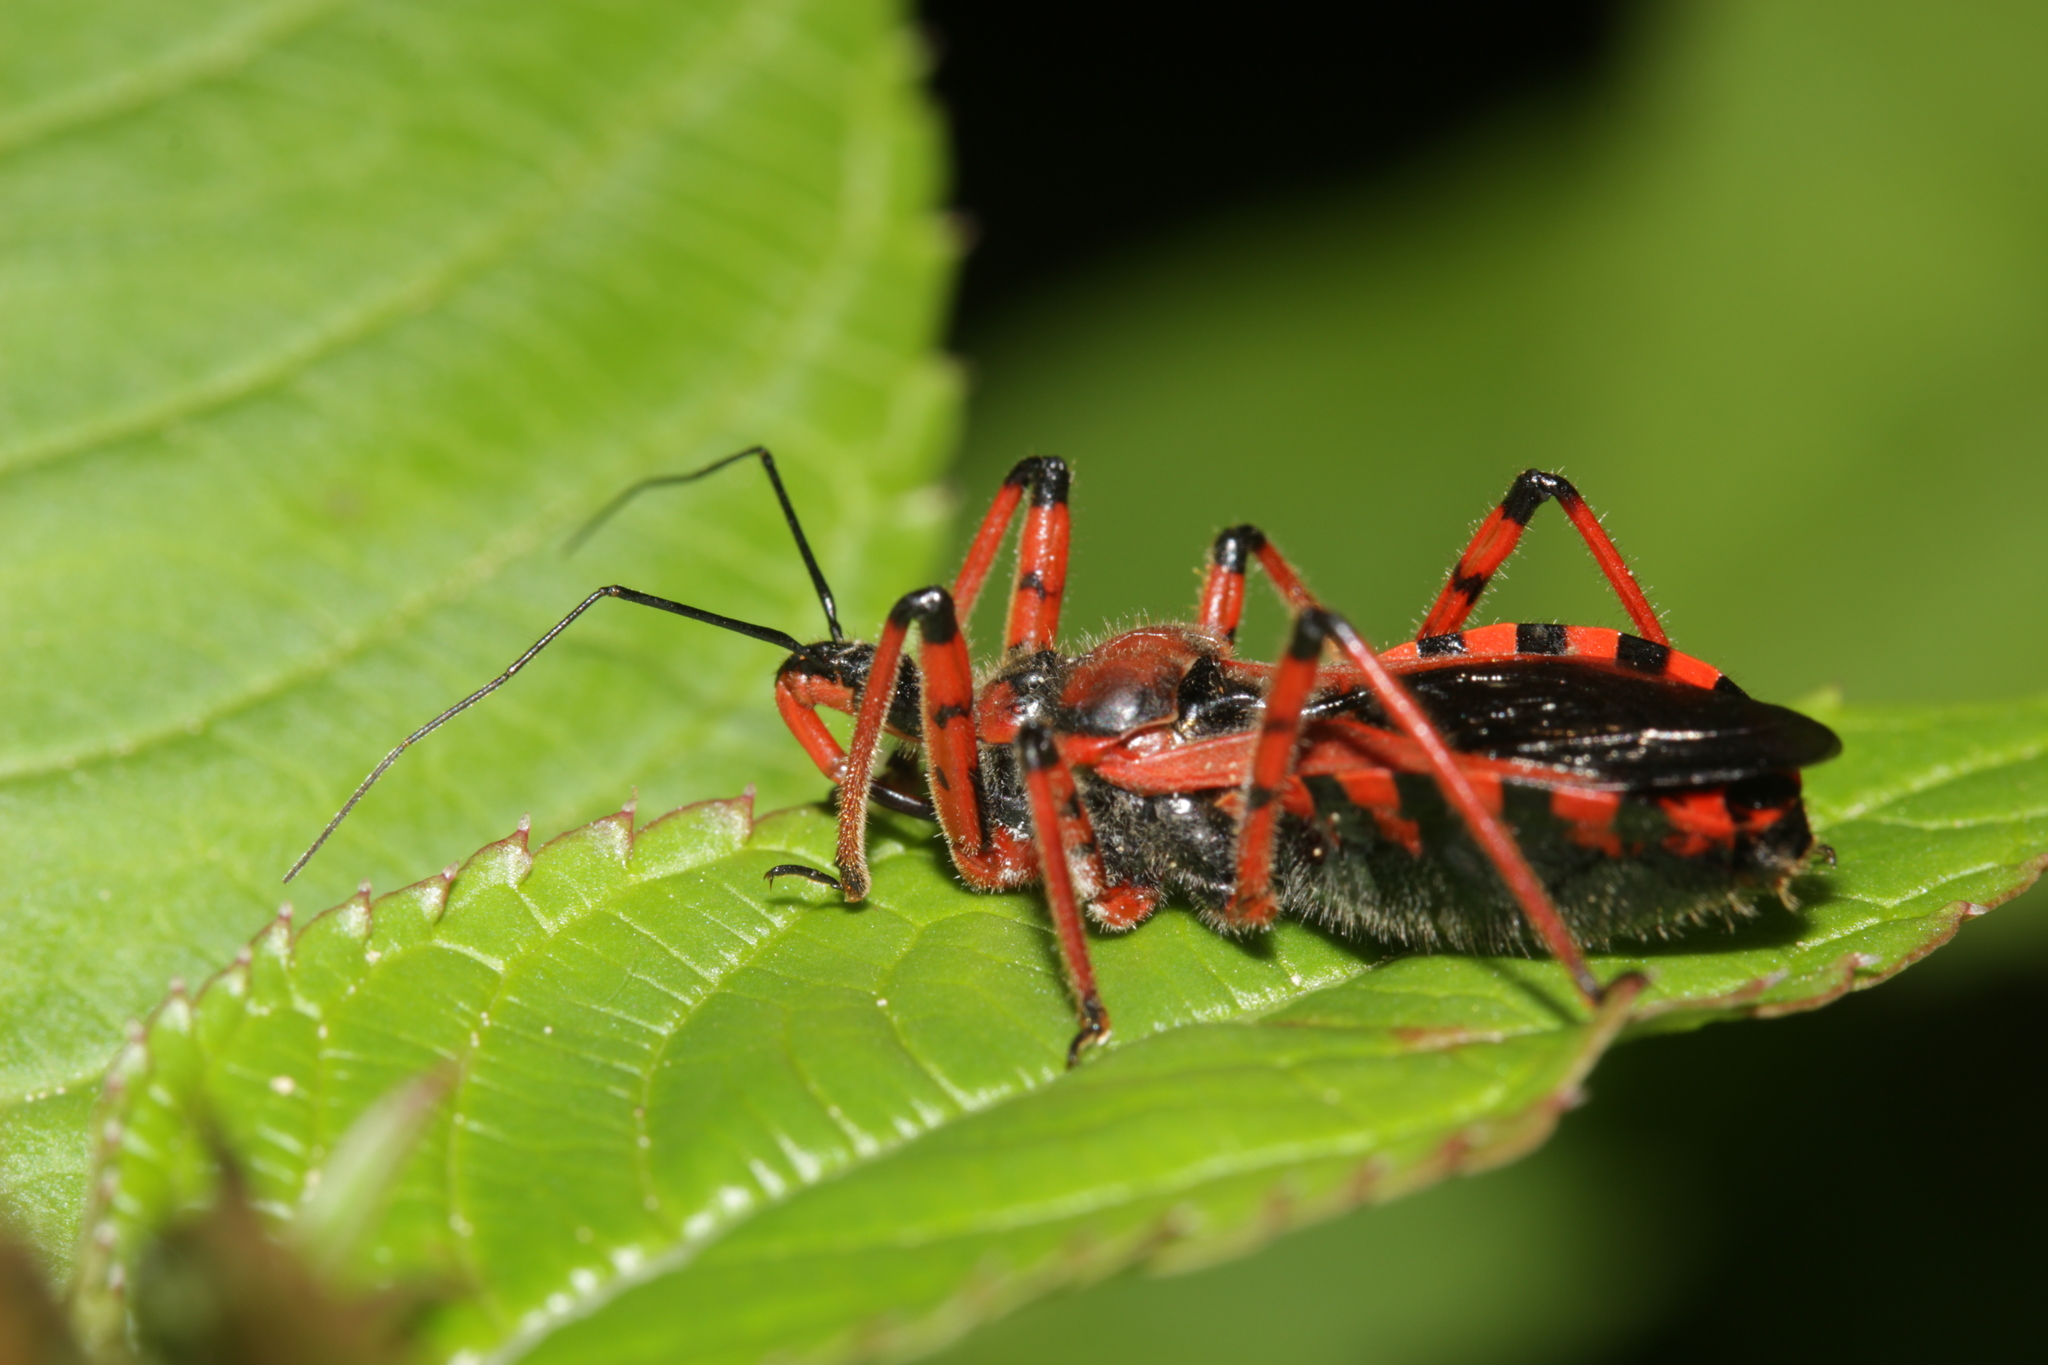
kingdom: Animalia
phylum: Arthropoda
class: Insecta
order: Hemiptera
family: Reduviidae
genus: Rhynocoris
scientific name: Rhynocoris iracundus
